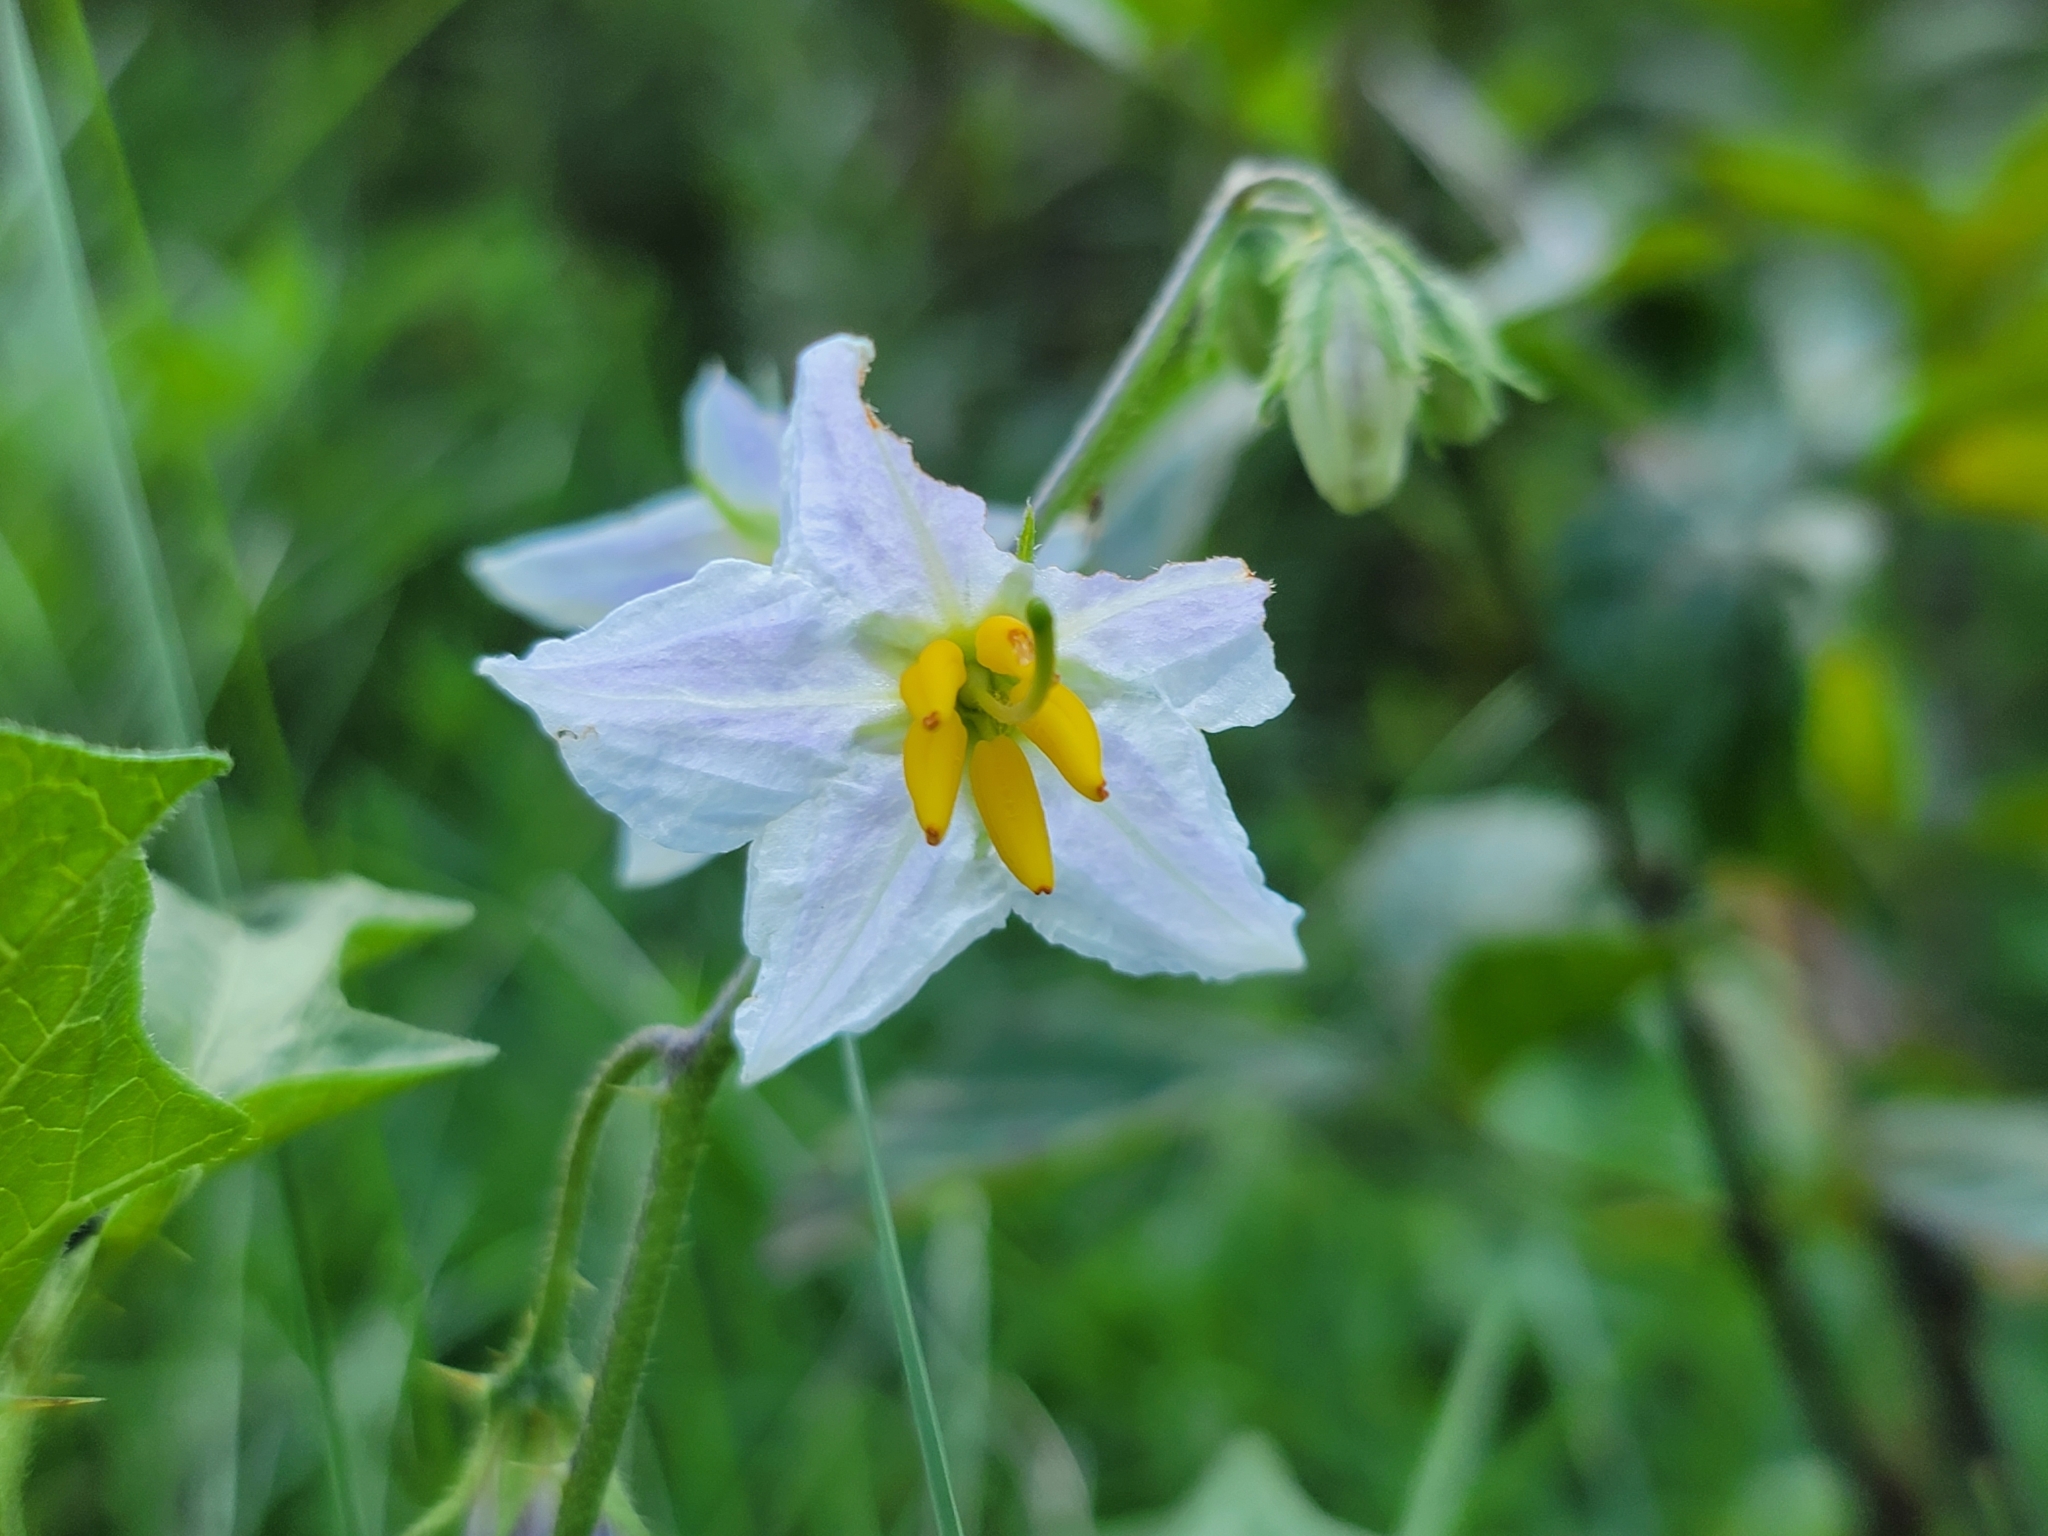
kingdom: Plantae
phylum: Tracheophyta
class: Magnoliopsida
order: Solanales
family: Solanaceae
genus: Solanum
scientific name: Solanum carolinense
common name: Horse-nettle
